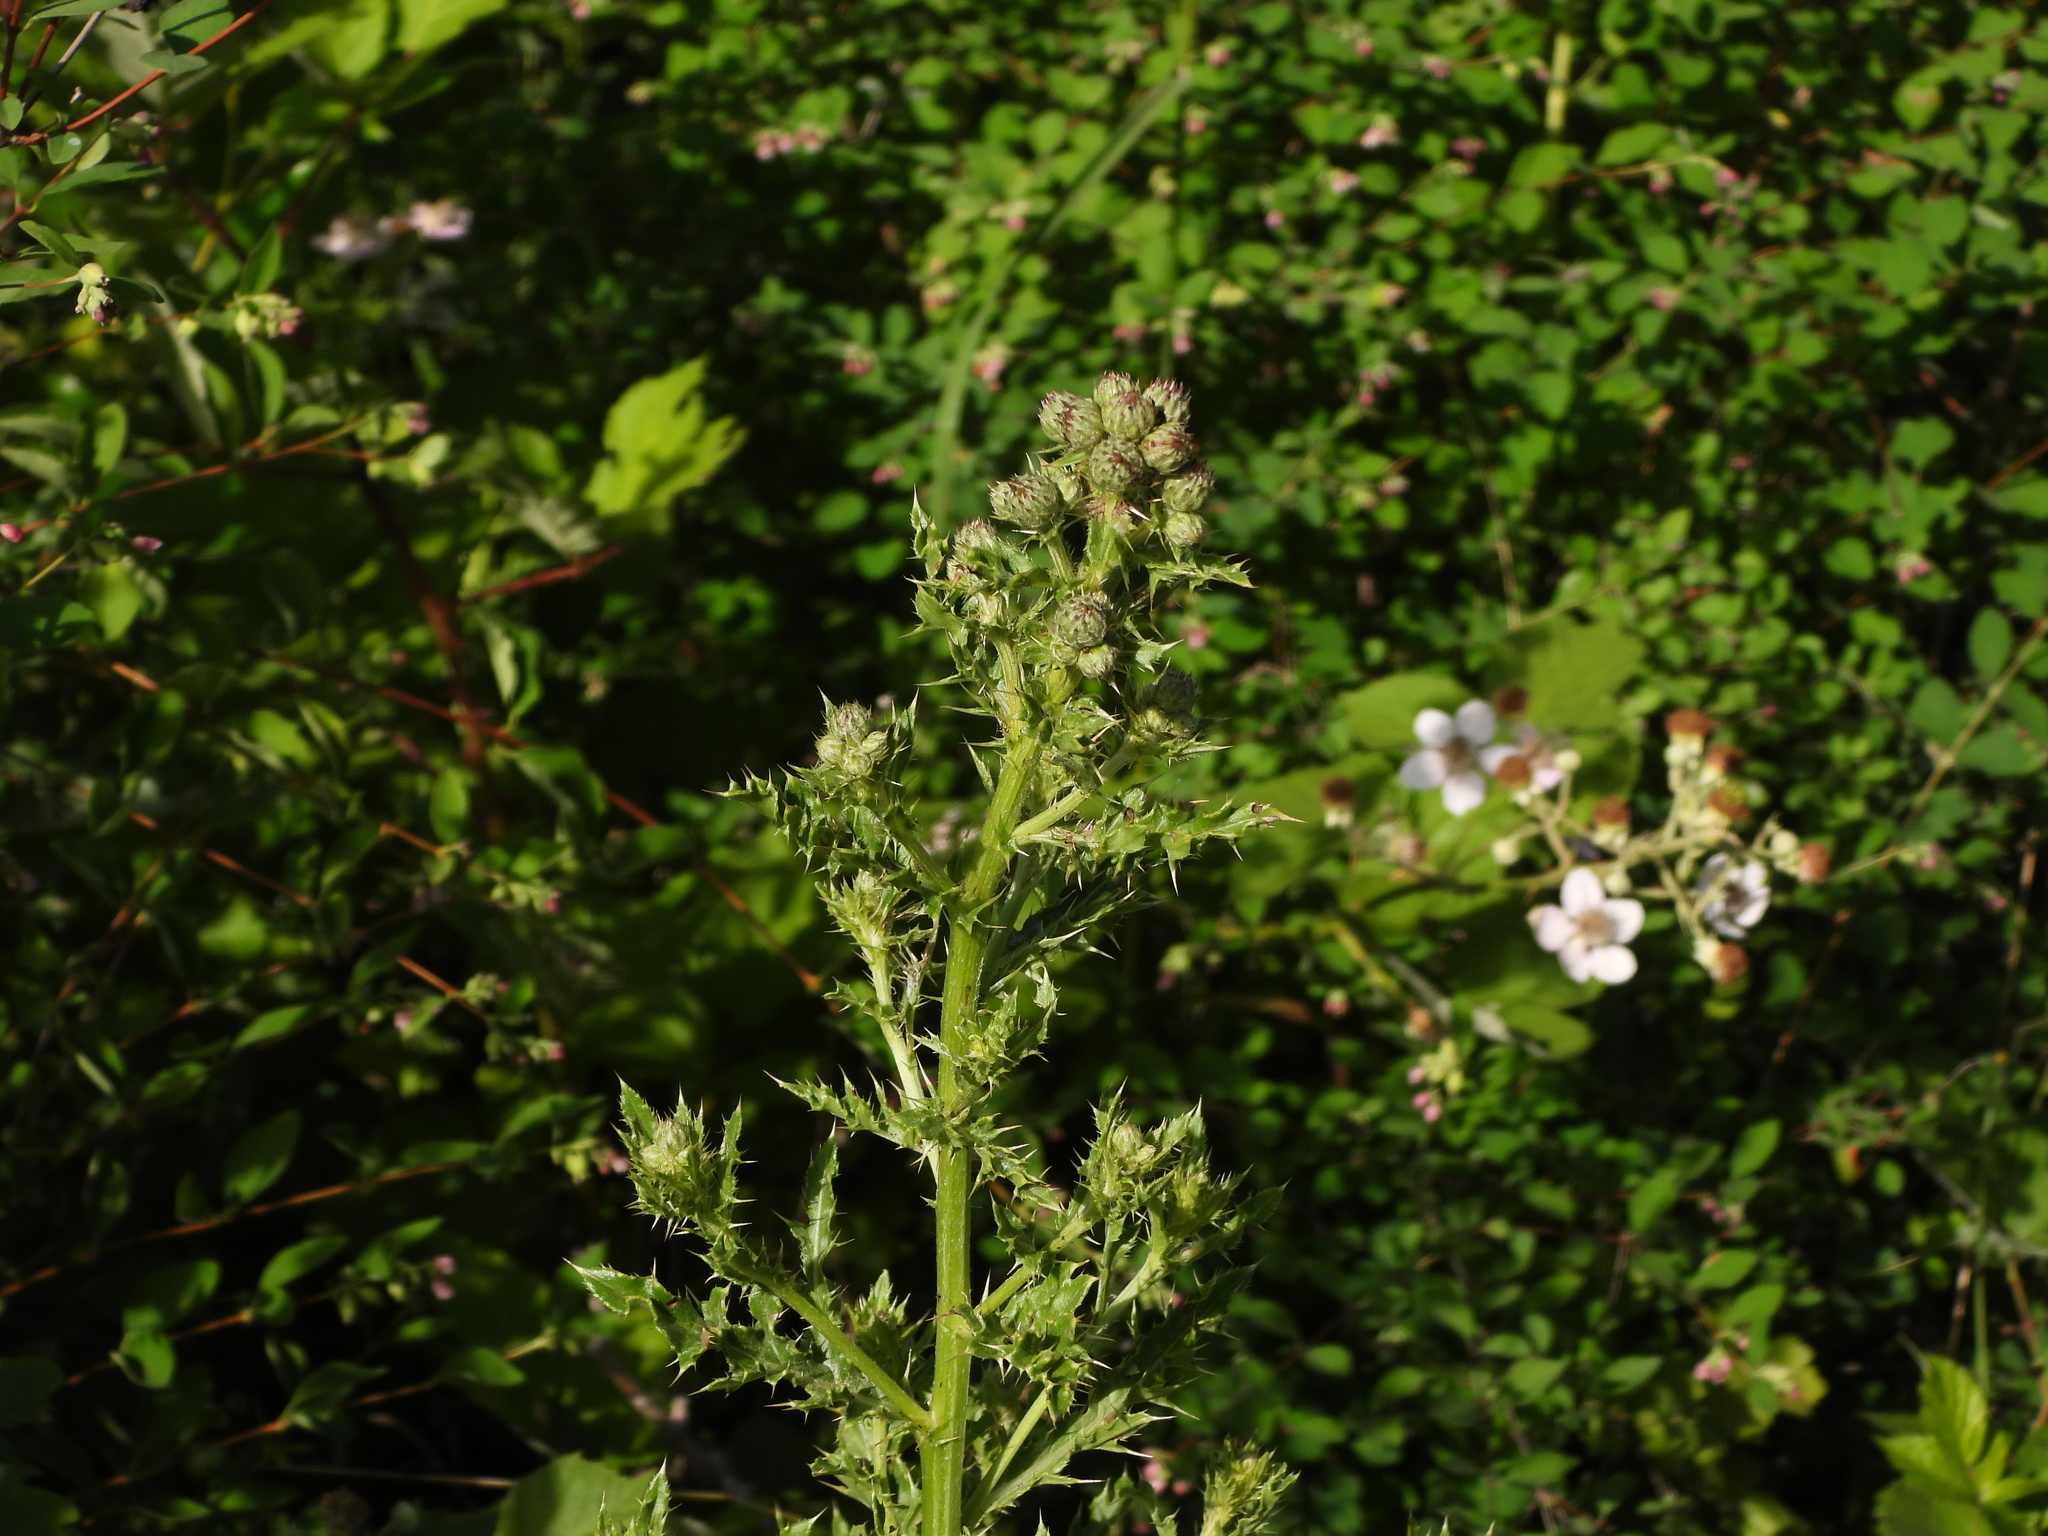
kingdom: Plantae
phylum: Tracheophyta
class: Magnoliopsida
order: Asterales
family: Asteraceae
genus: Cirsium
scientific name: Cirsium arvense
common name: Creeping thistle
